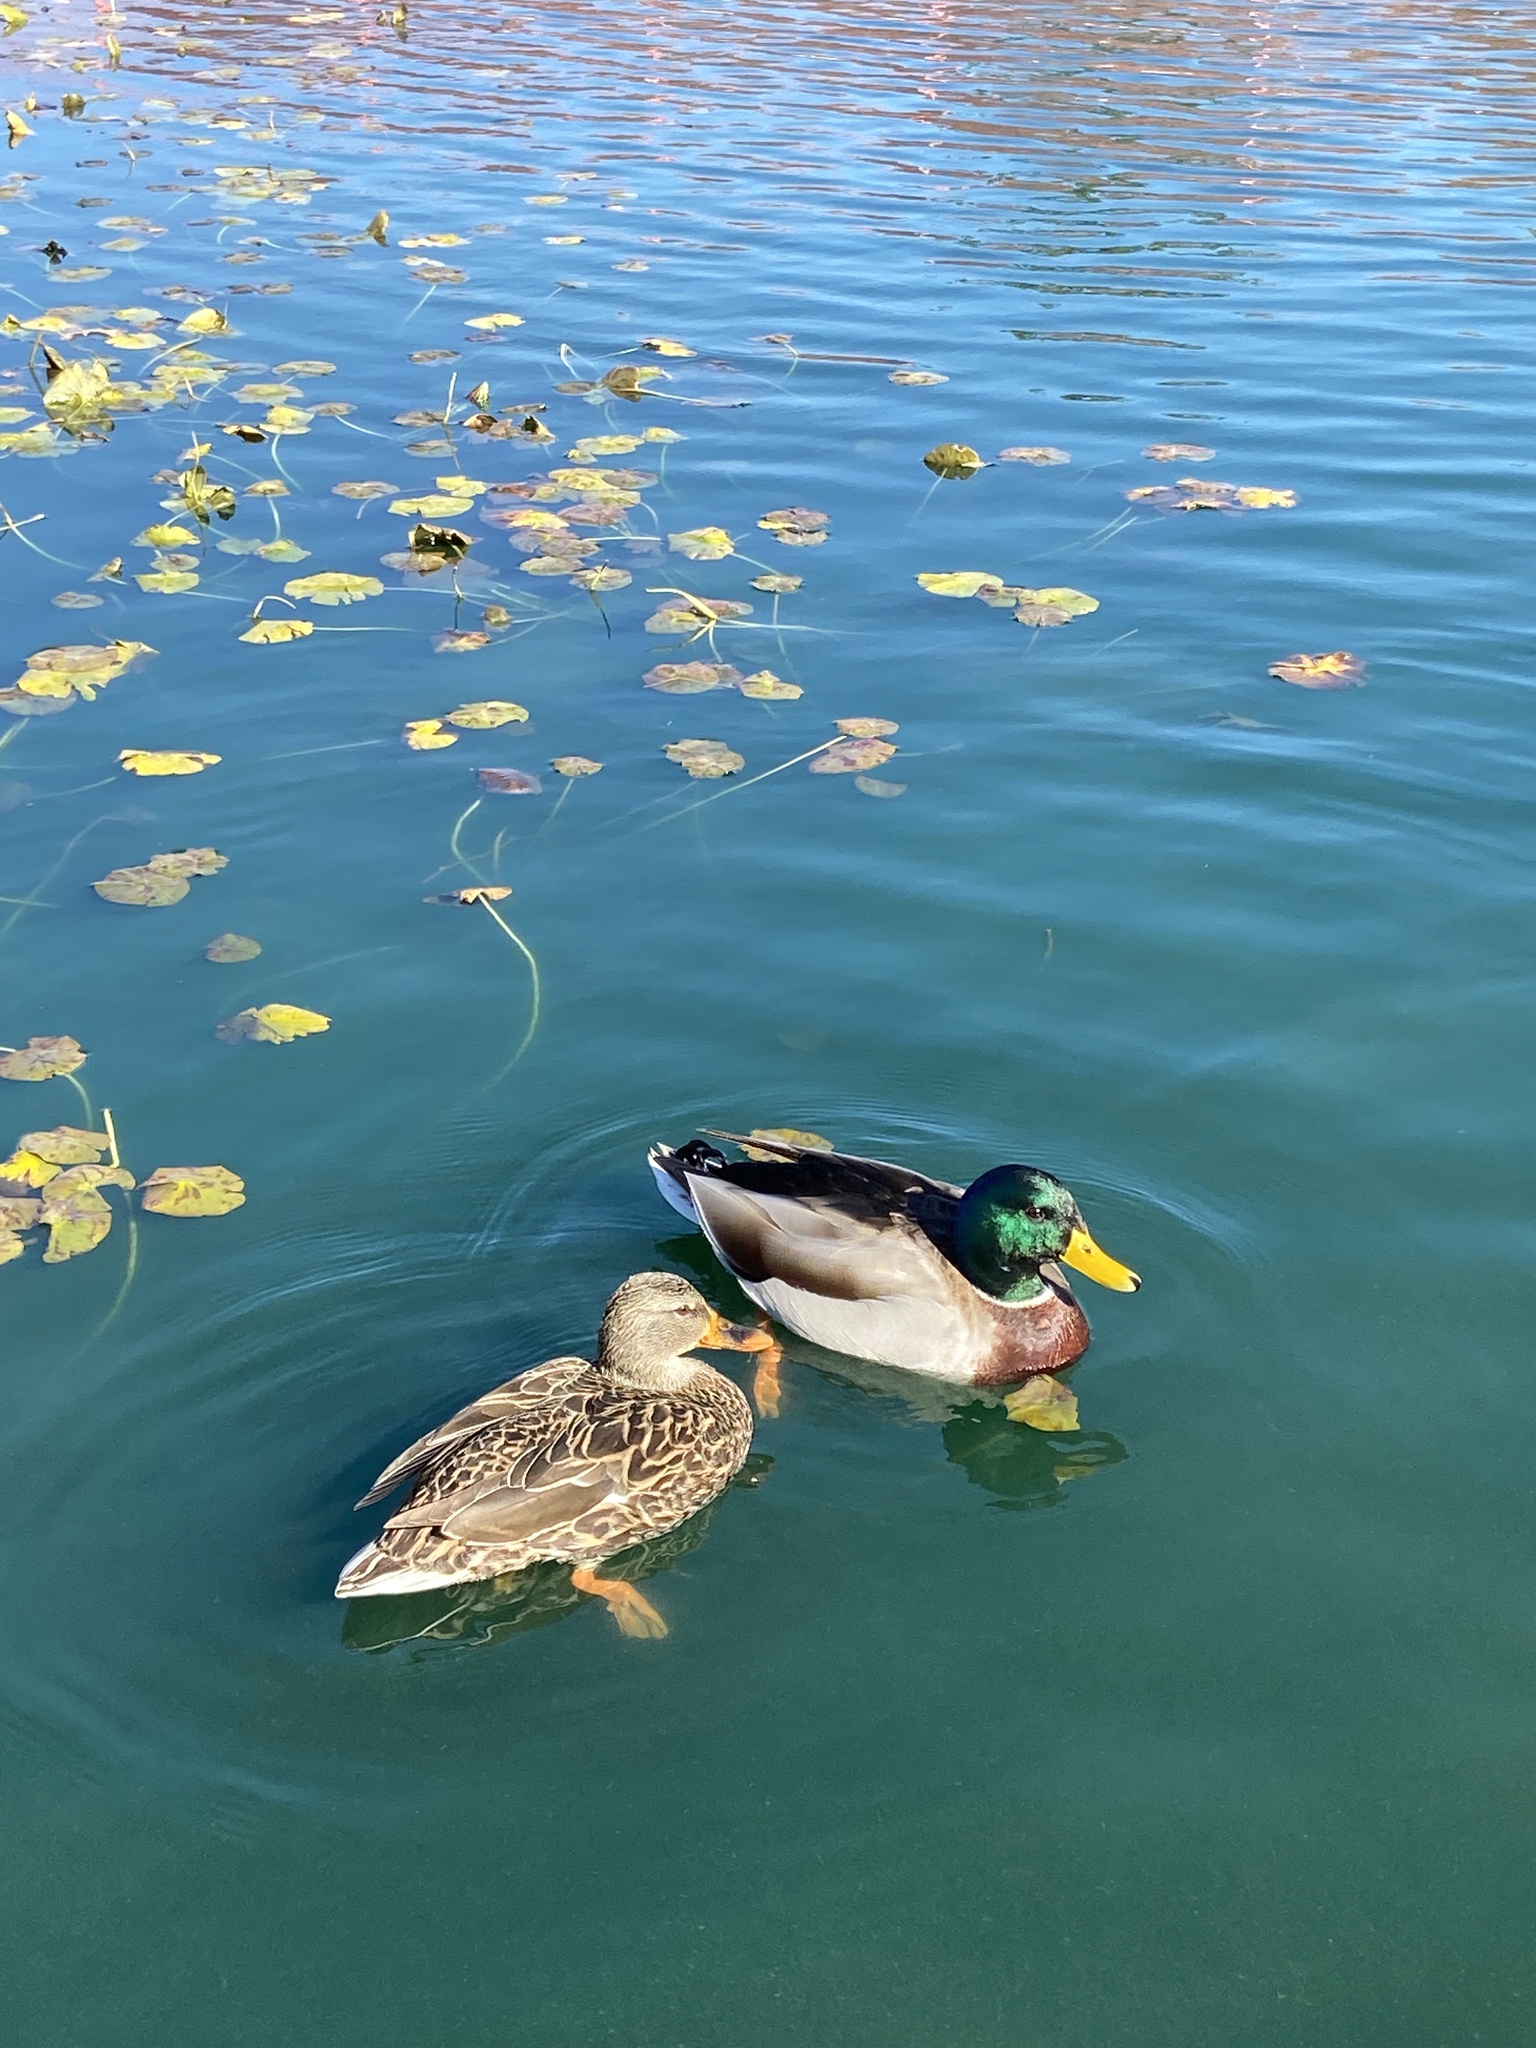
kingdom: Animalia
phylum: Chordata
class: Aves
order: Anseriformes
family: Anatidae
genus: Anas
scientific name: Anas platyrhynchos
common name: Mallard
